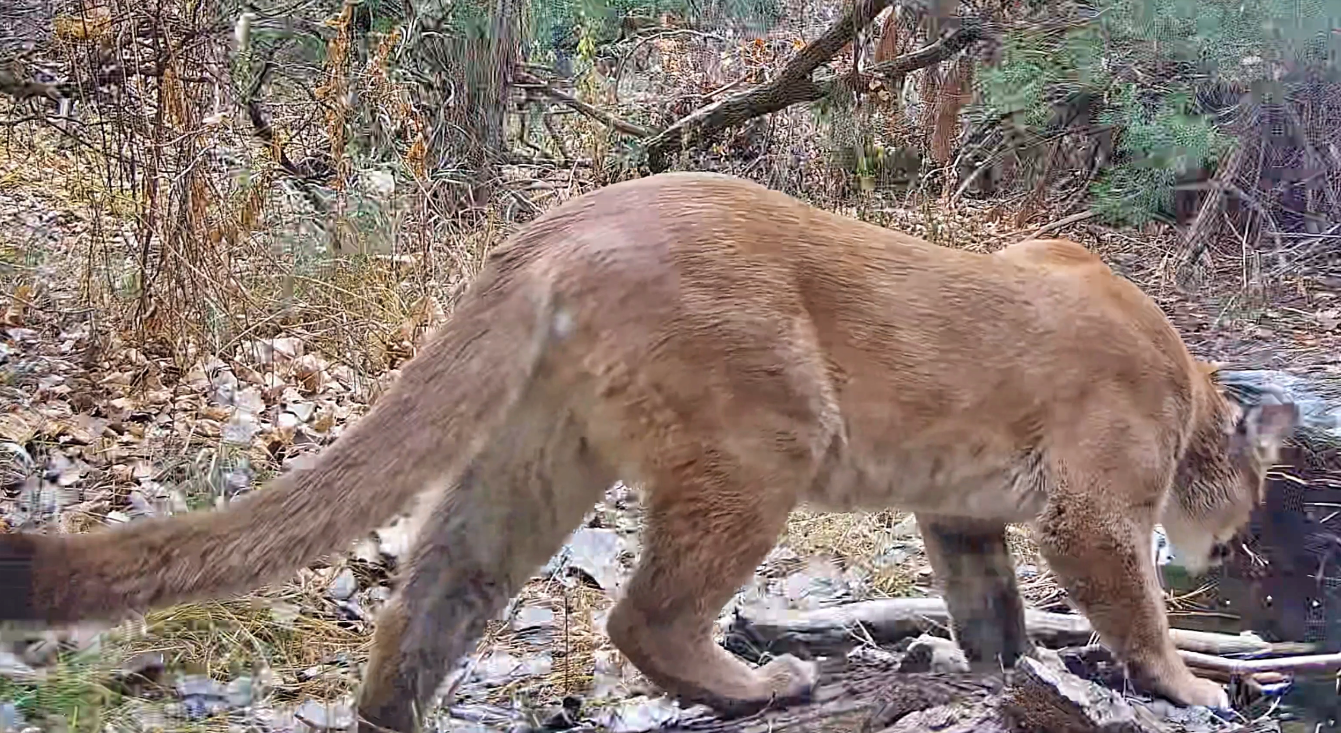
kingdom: Animalia
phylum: Chordata
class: Mammalia
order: Carnivora
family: Felidae
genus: Puma
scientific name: Puma concolor
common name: Puma
